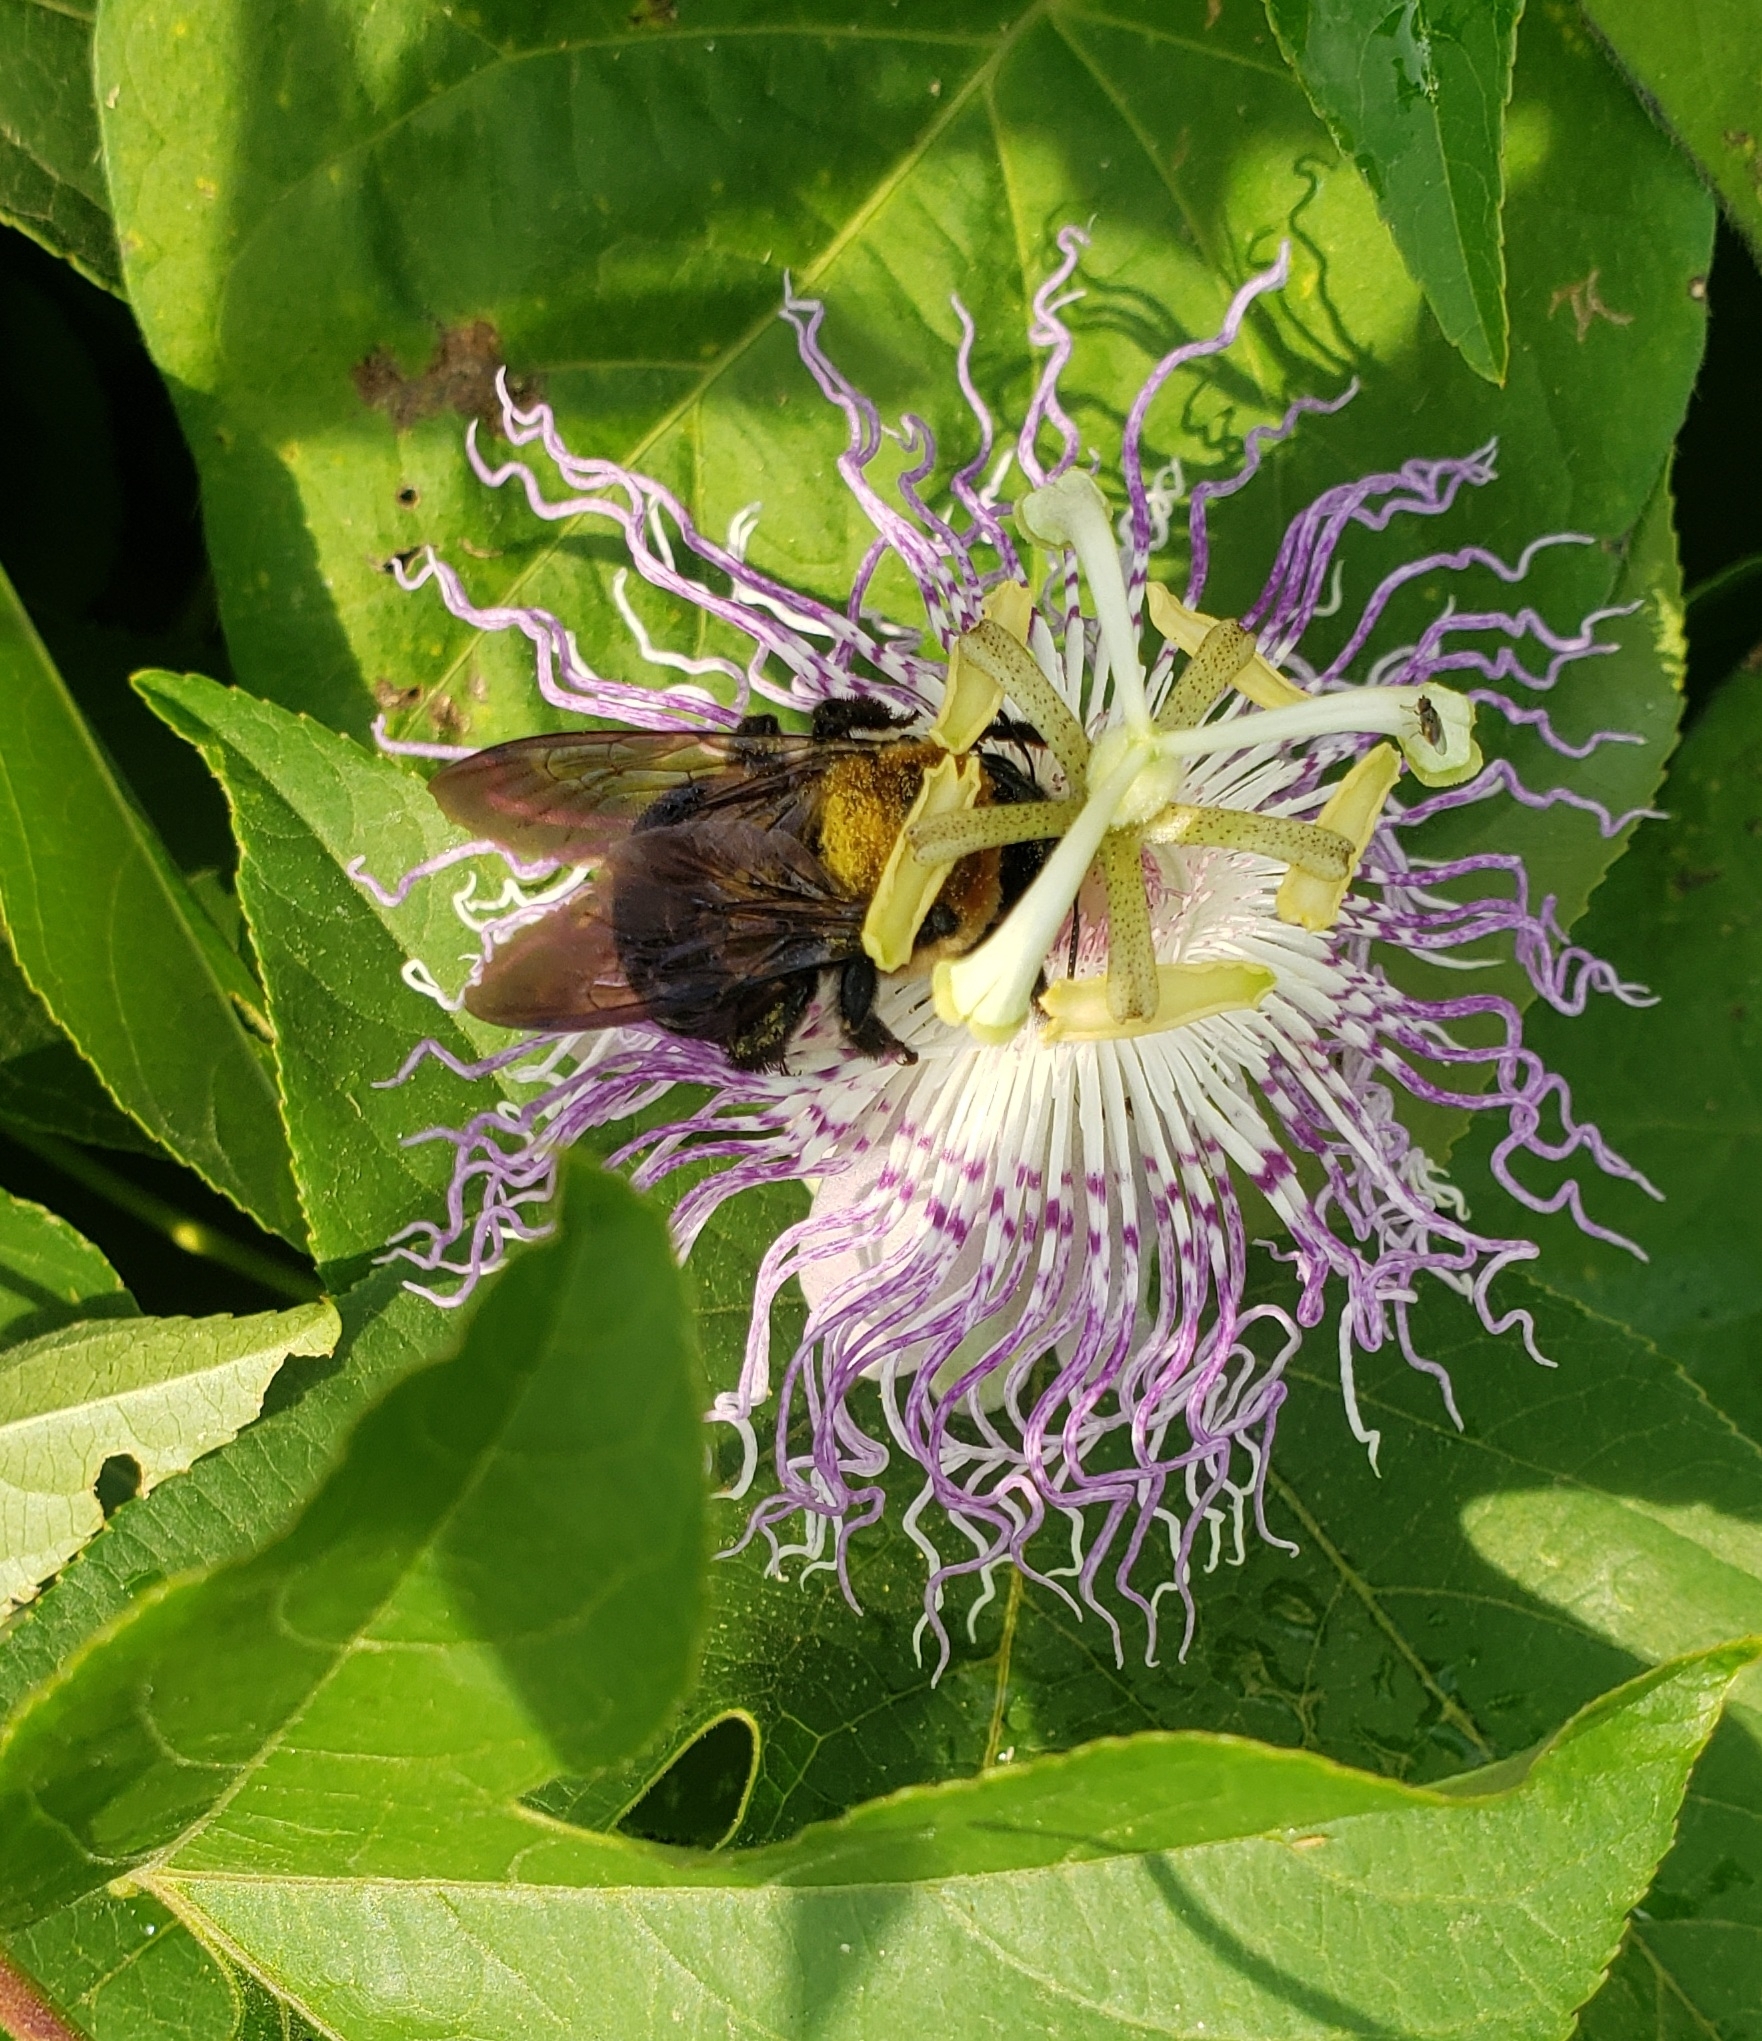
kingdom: Animalia
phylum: Arthropoda
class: Insecta
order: Hymenoptera
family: Apidae
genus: Xylocopa
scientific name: Xylocopa virginica
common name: Carpenter bee
